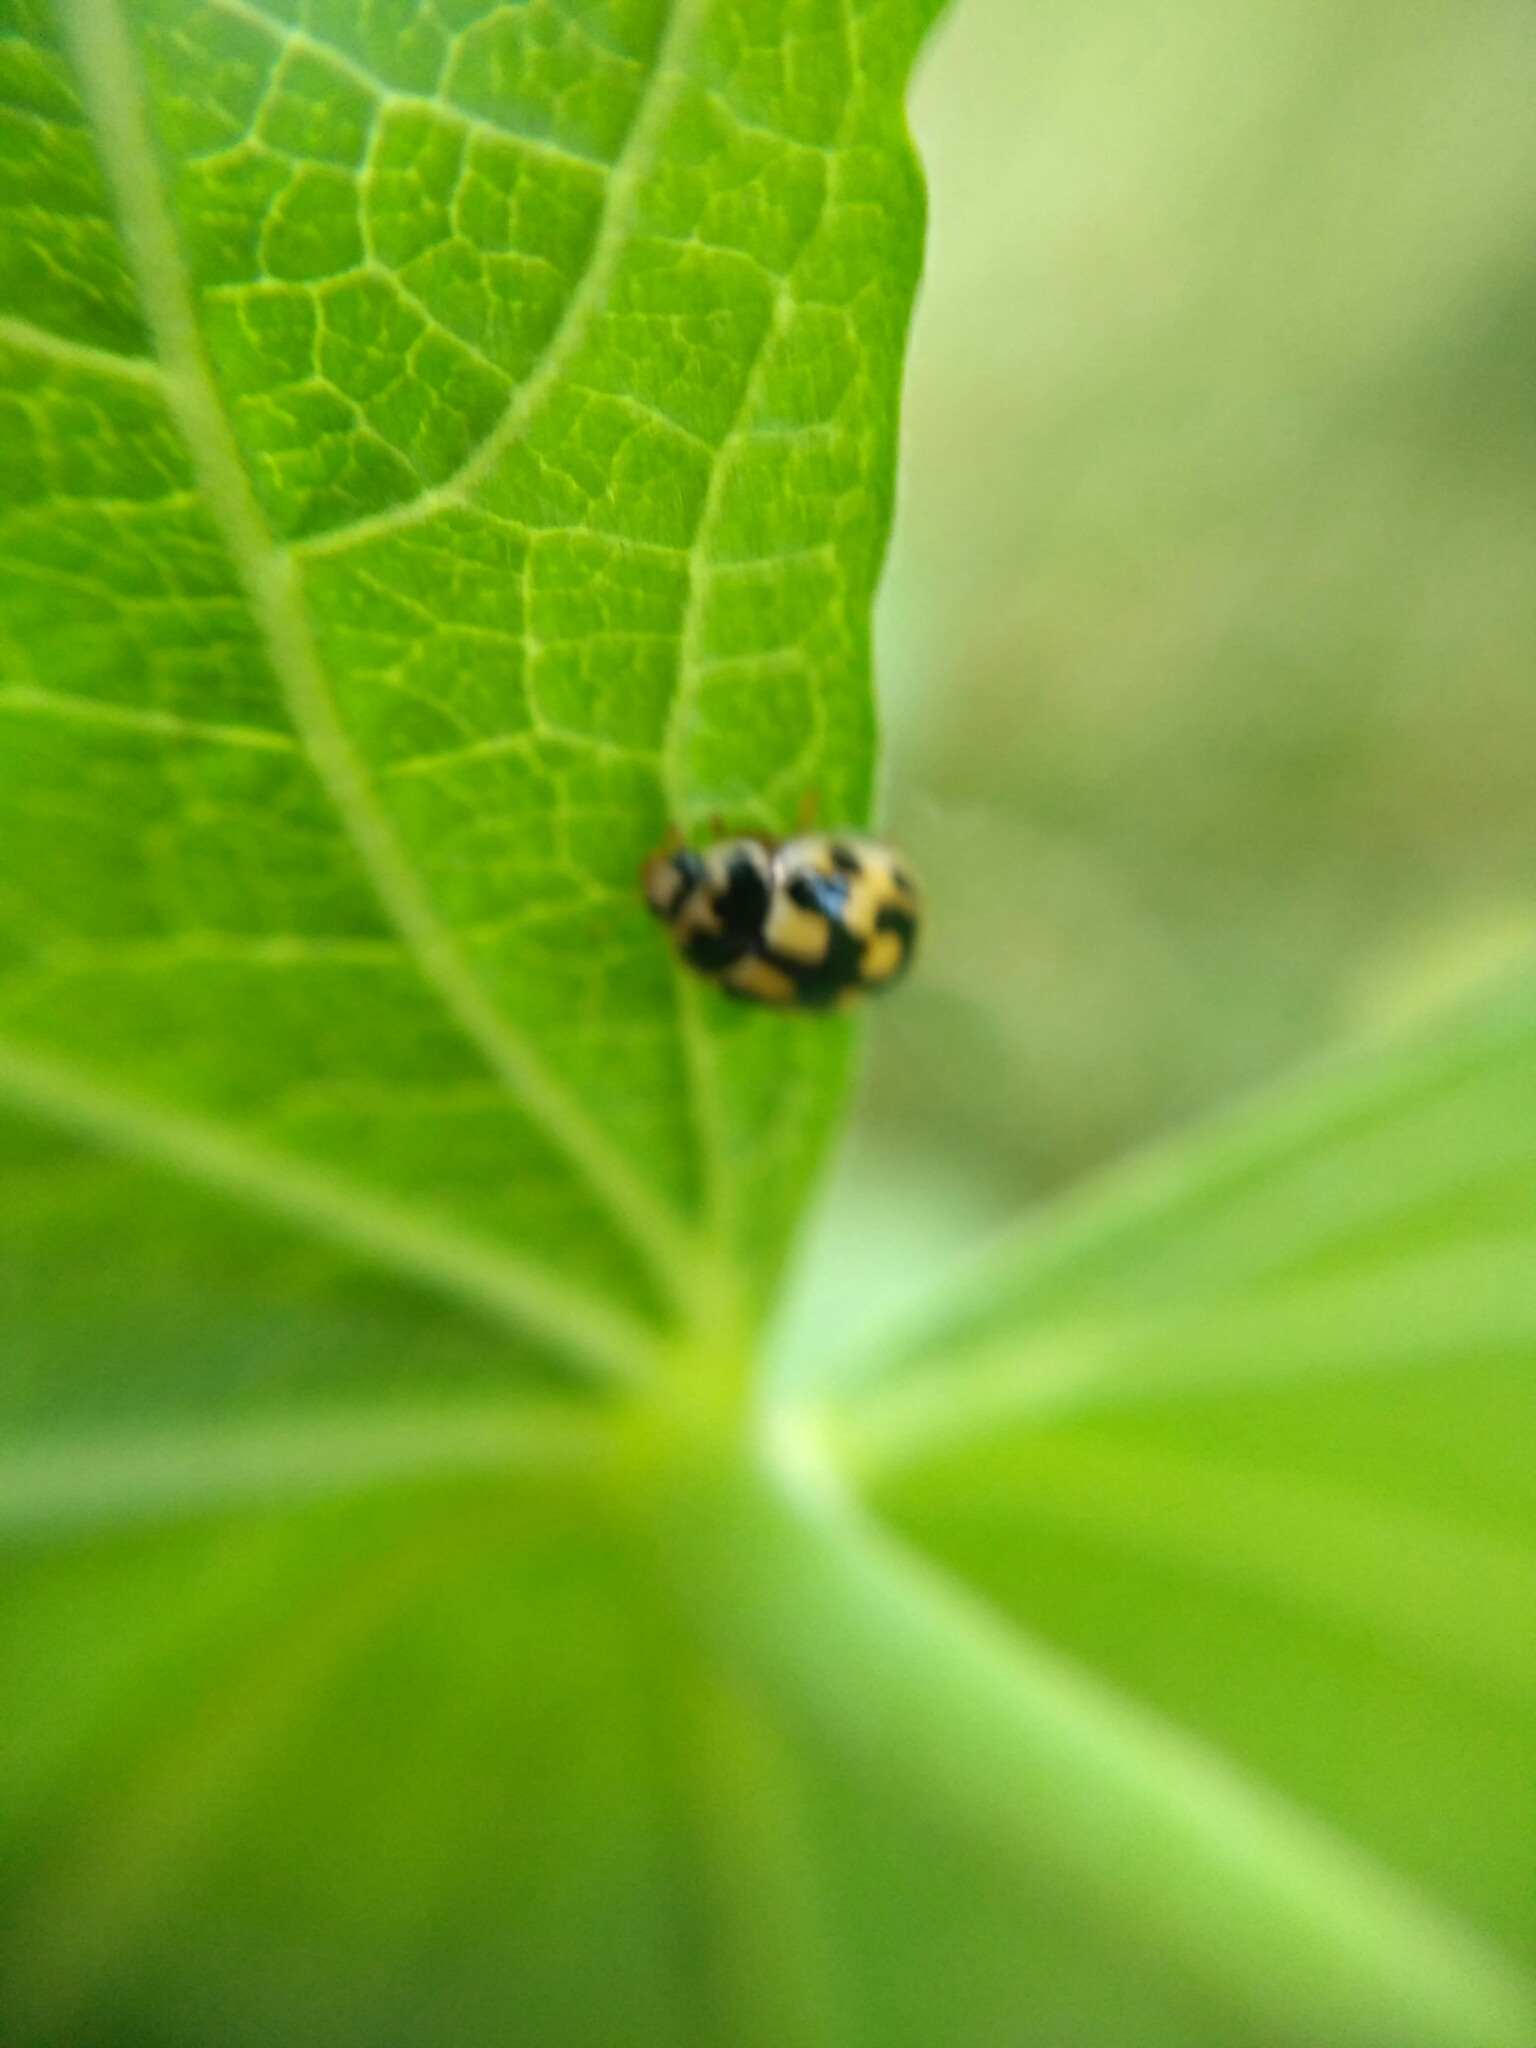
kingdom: Animalia
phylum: Arthropoda
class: Insecta
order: Coleoptera
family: Coccinellidae
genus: Propylaea
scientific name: Propylaea quatuordecimpunctata
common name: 14-spotted ladybird beetle
